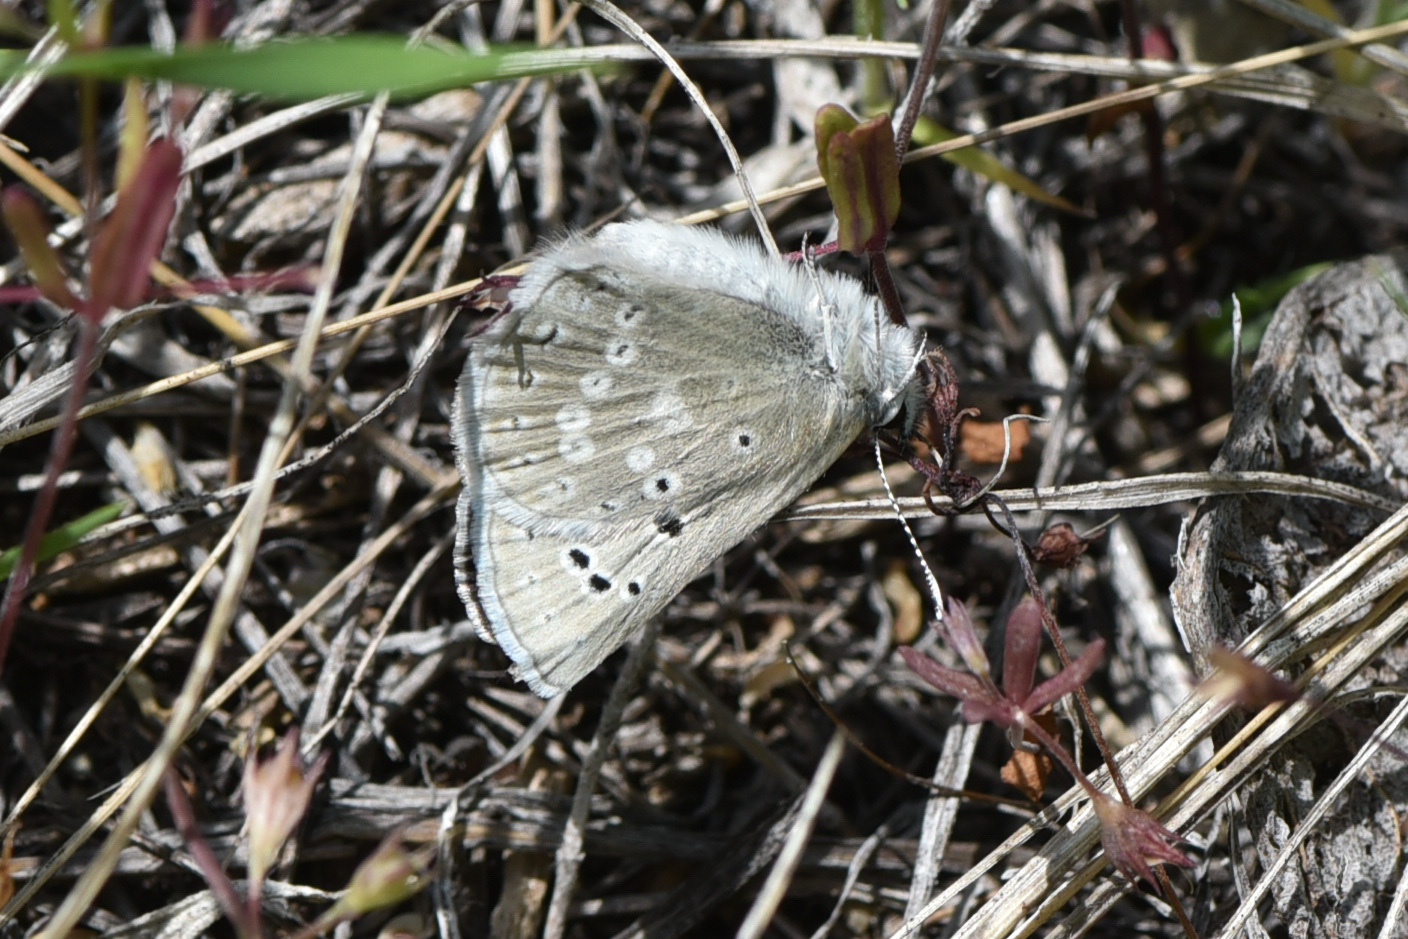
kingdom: Animalia
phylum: Arthropoda
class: Insecta
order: Lepidoptera
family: Lycaenidae
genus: Icaricia
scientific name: Icaricia icarioides
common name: Boisduval's blue
